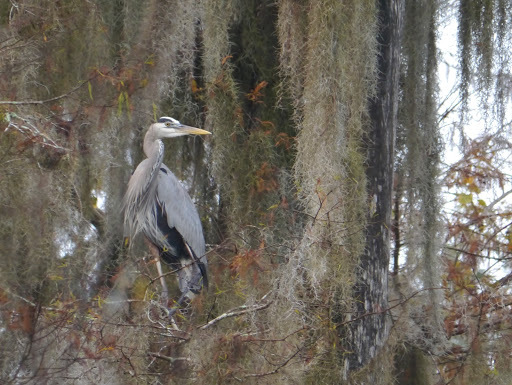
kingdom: Animalia
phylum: Chordata
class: Aves
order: Pelecaniformes
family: Ardeidae
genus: Ardea
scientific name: Ardea herodias
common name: Great blue heron
